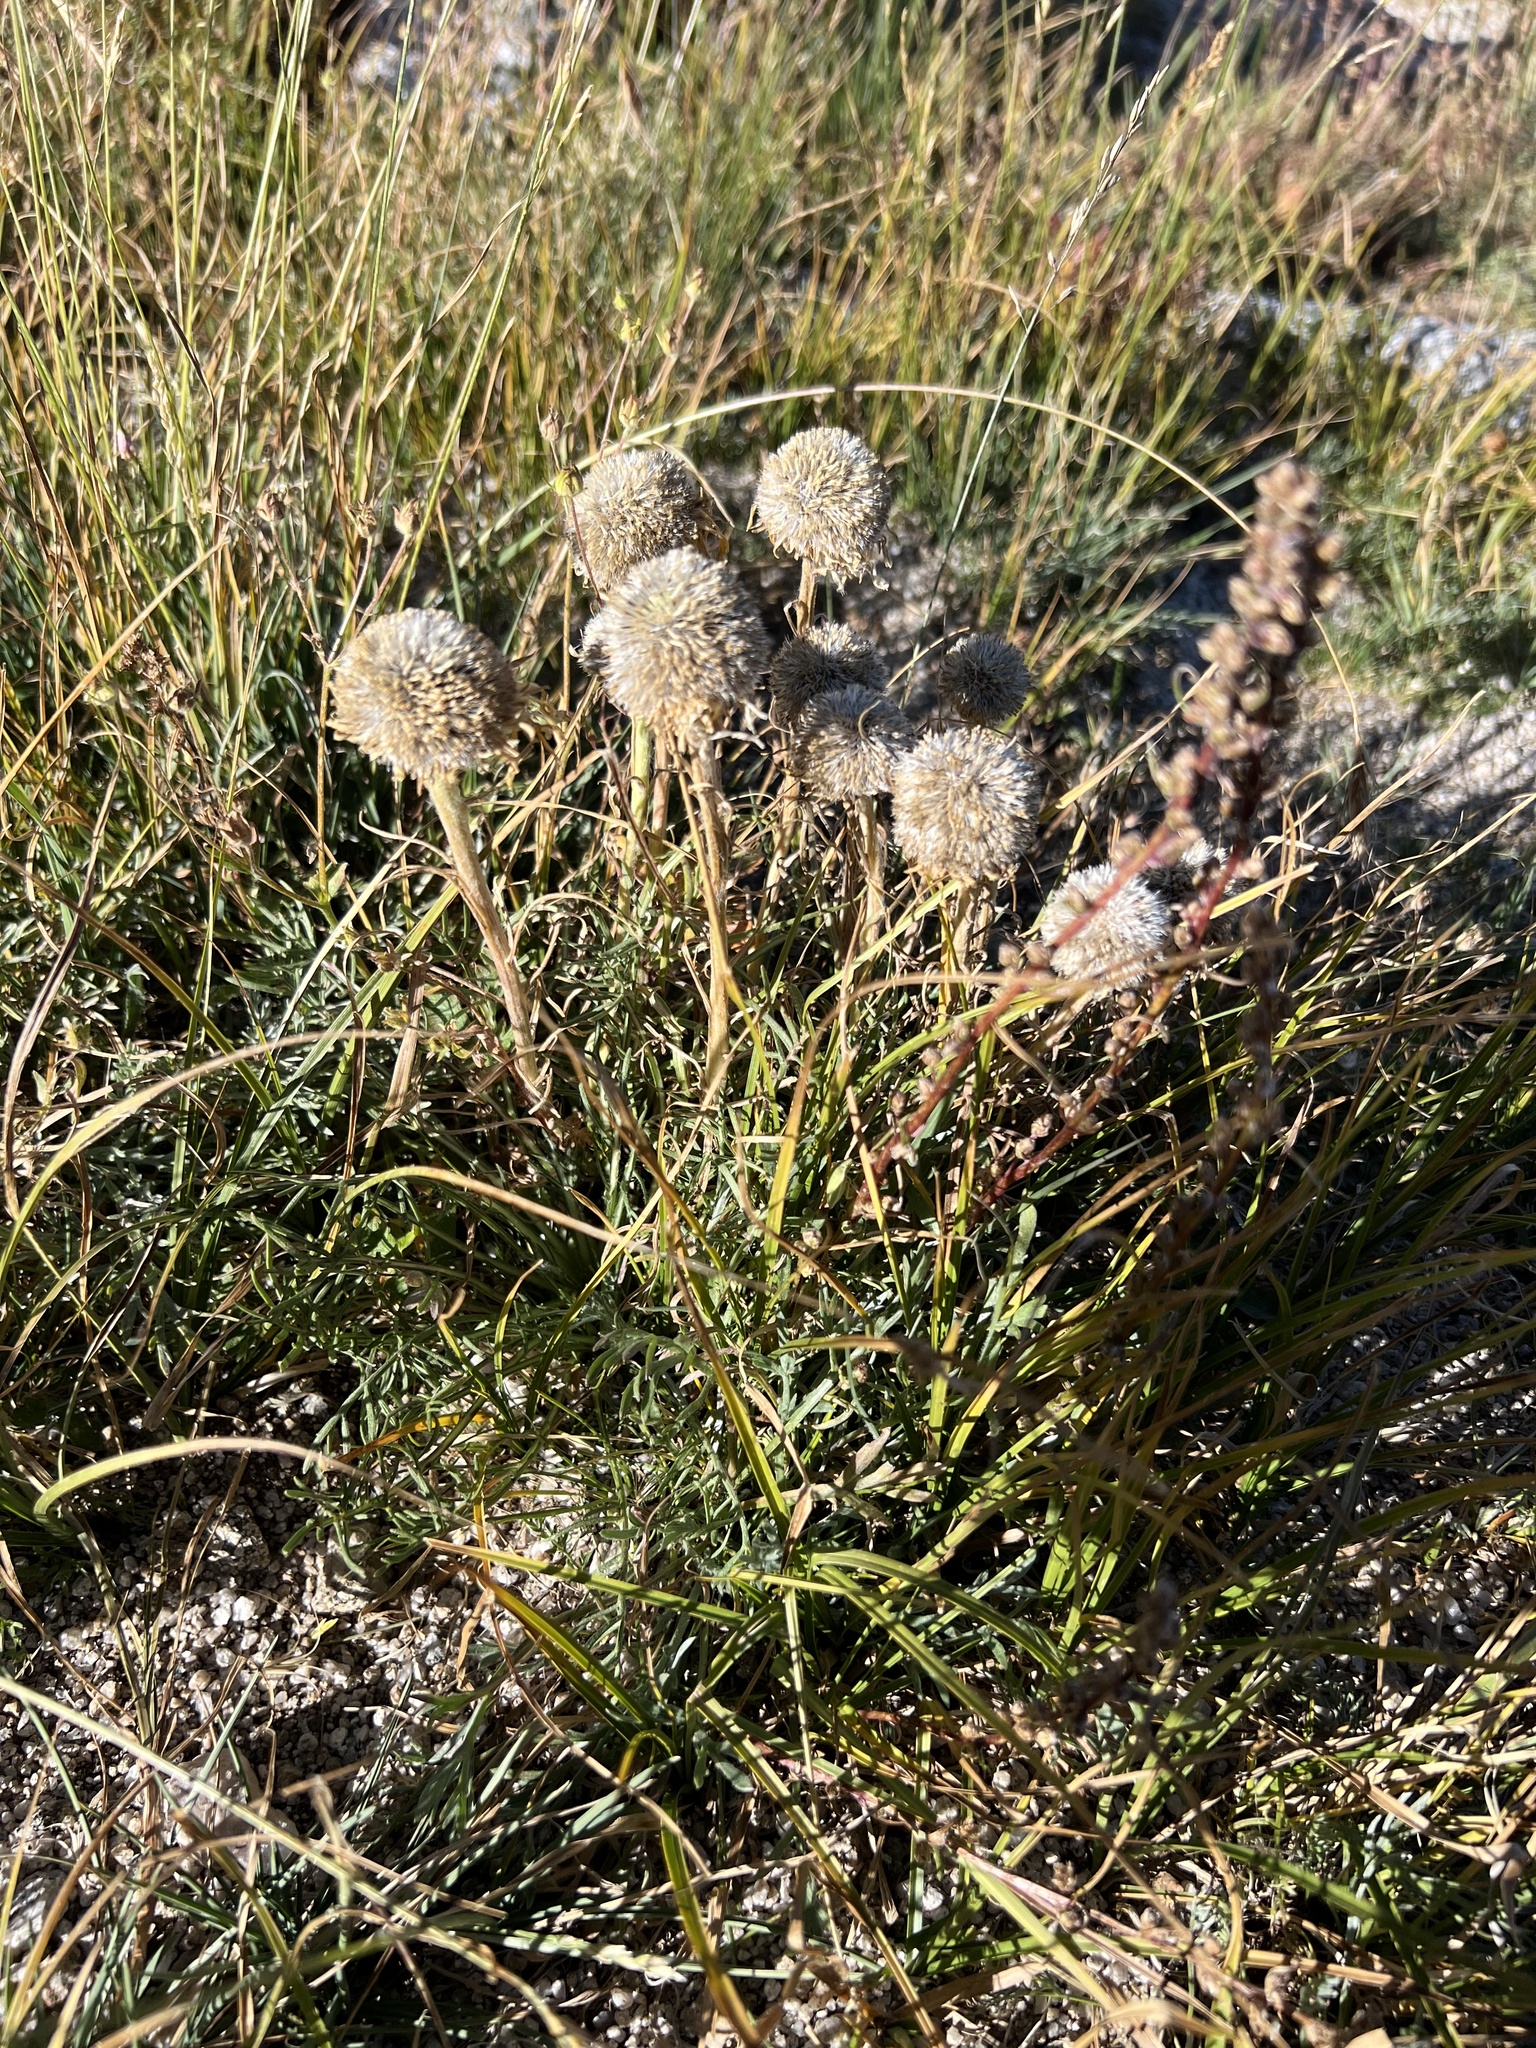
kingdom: Plantae
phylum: Tracheophyta
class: Magnoliopsida
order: Asterales
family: Asteraceae
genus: Hymenoxys
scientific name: Hymenoxys grandiflora
